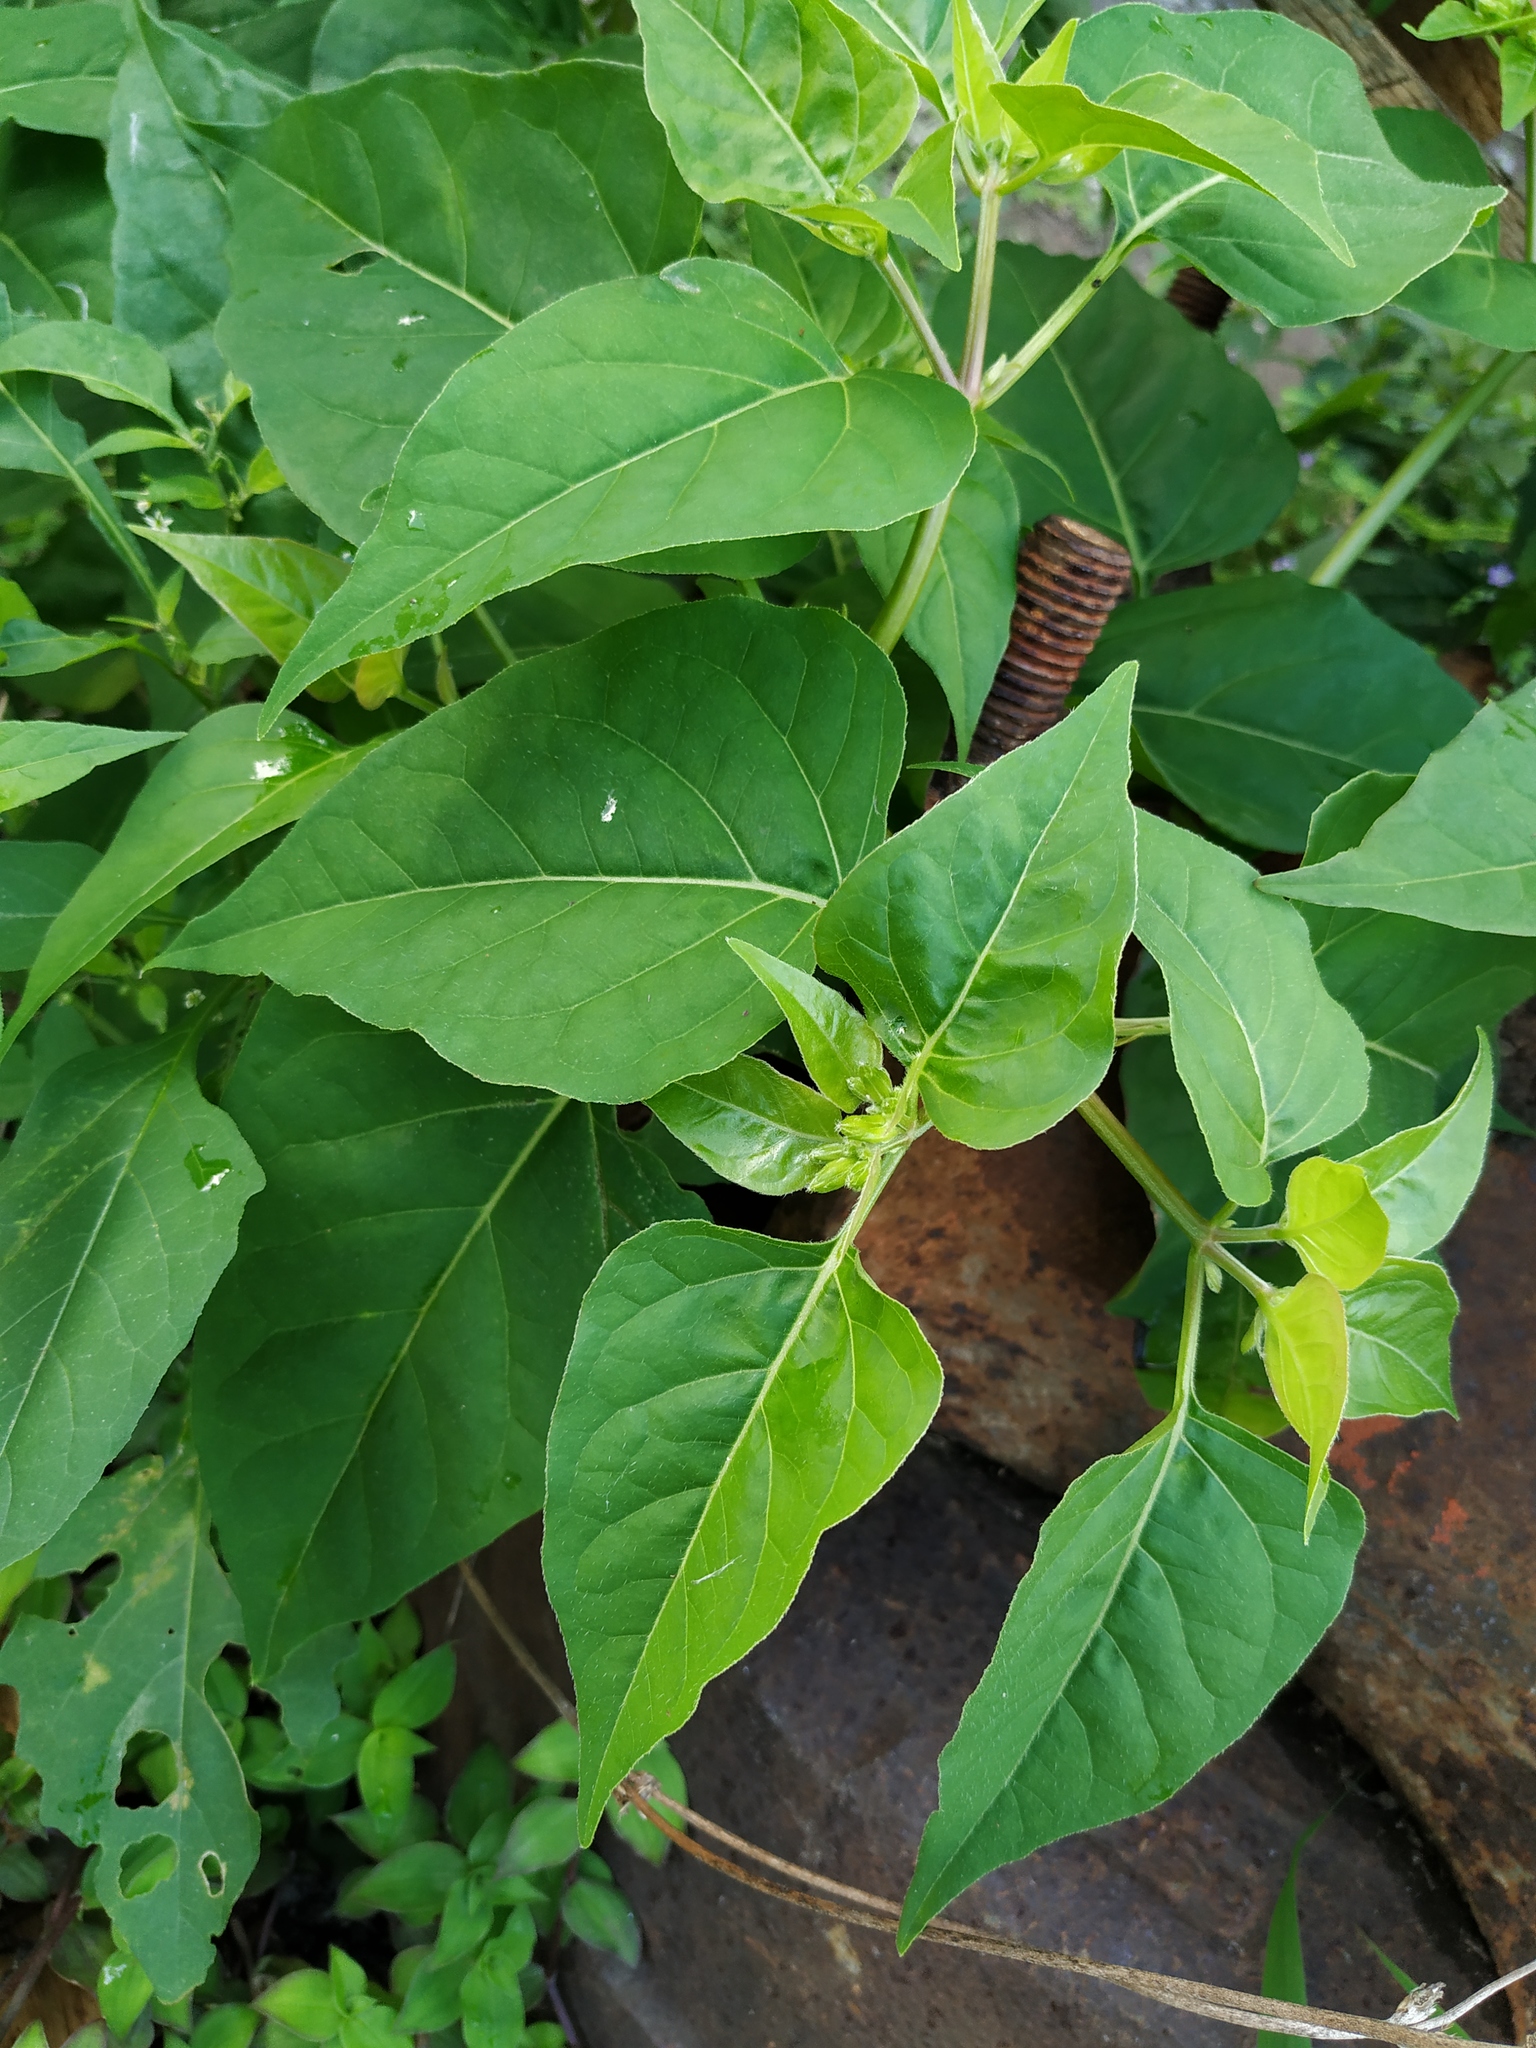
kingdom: Plantae
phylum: Tracheophyta
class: Magnoliopsida
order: Caryophyllales
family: Nyctaginaceae
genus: Mirabilis
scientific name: Mirabilis jalapa
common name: Marvel-of-peru
